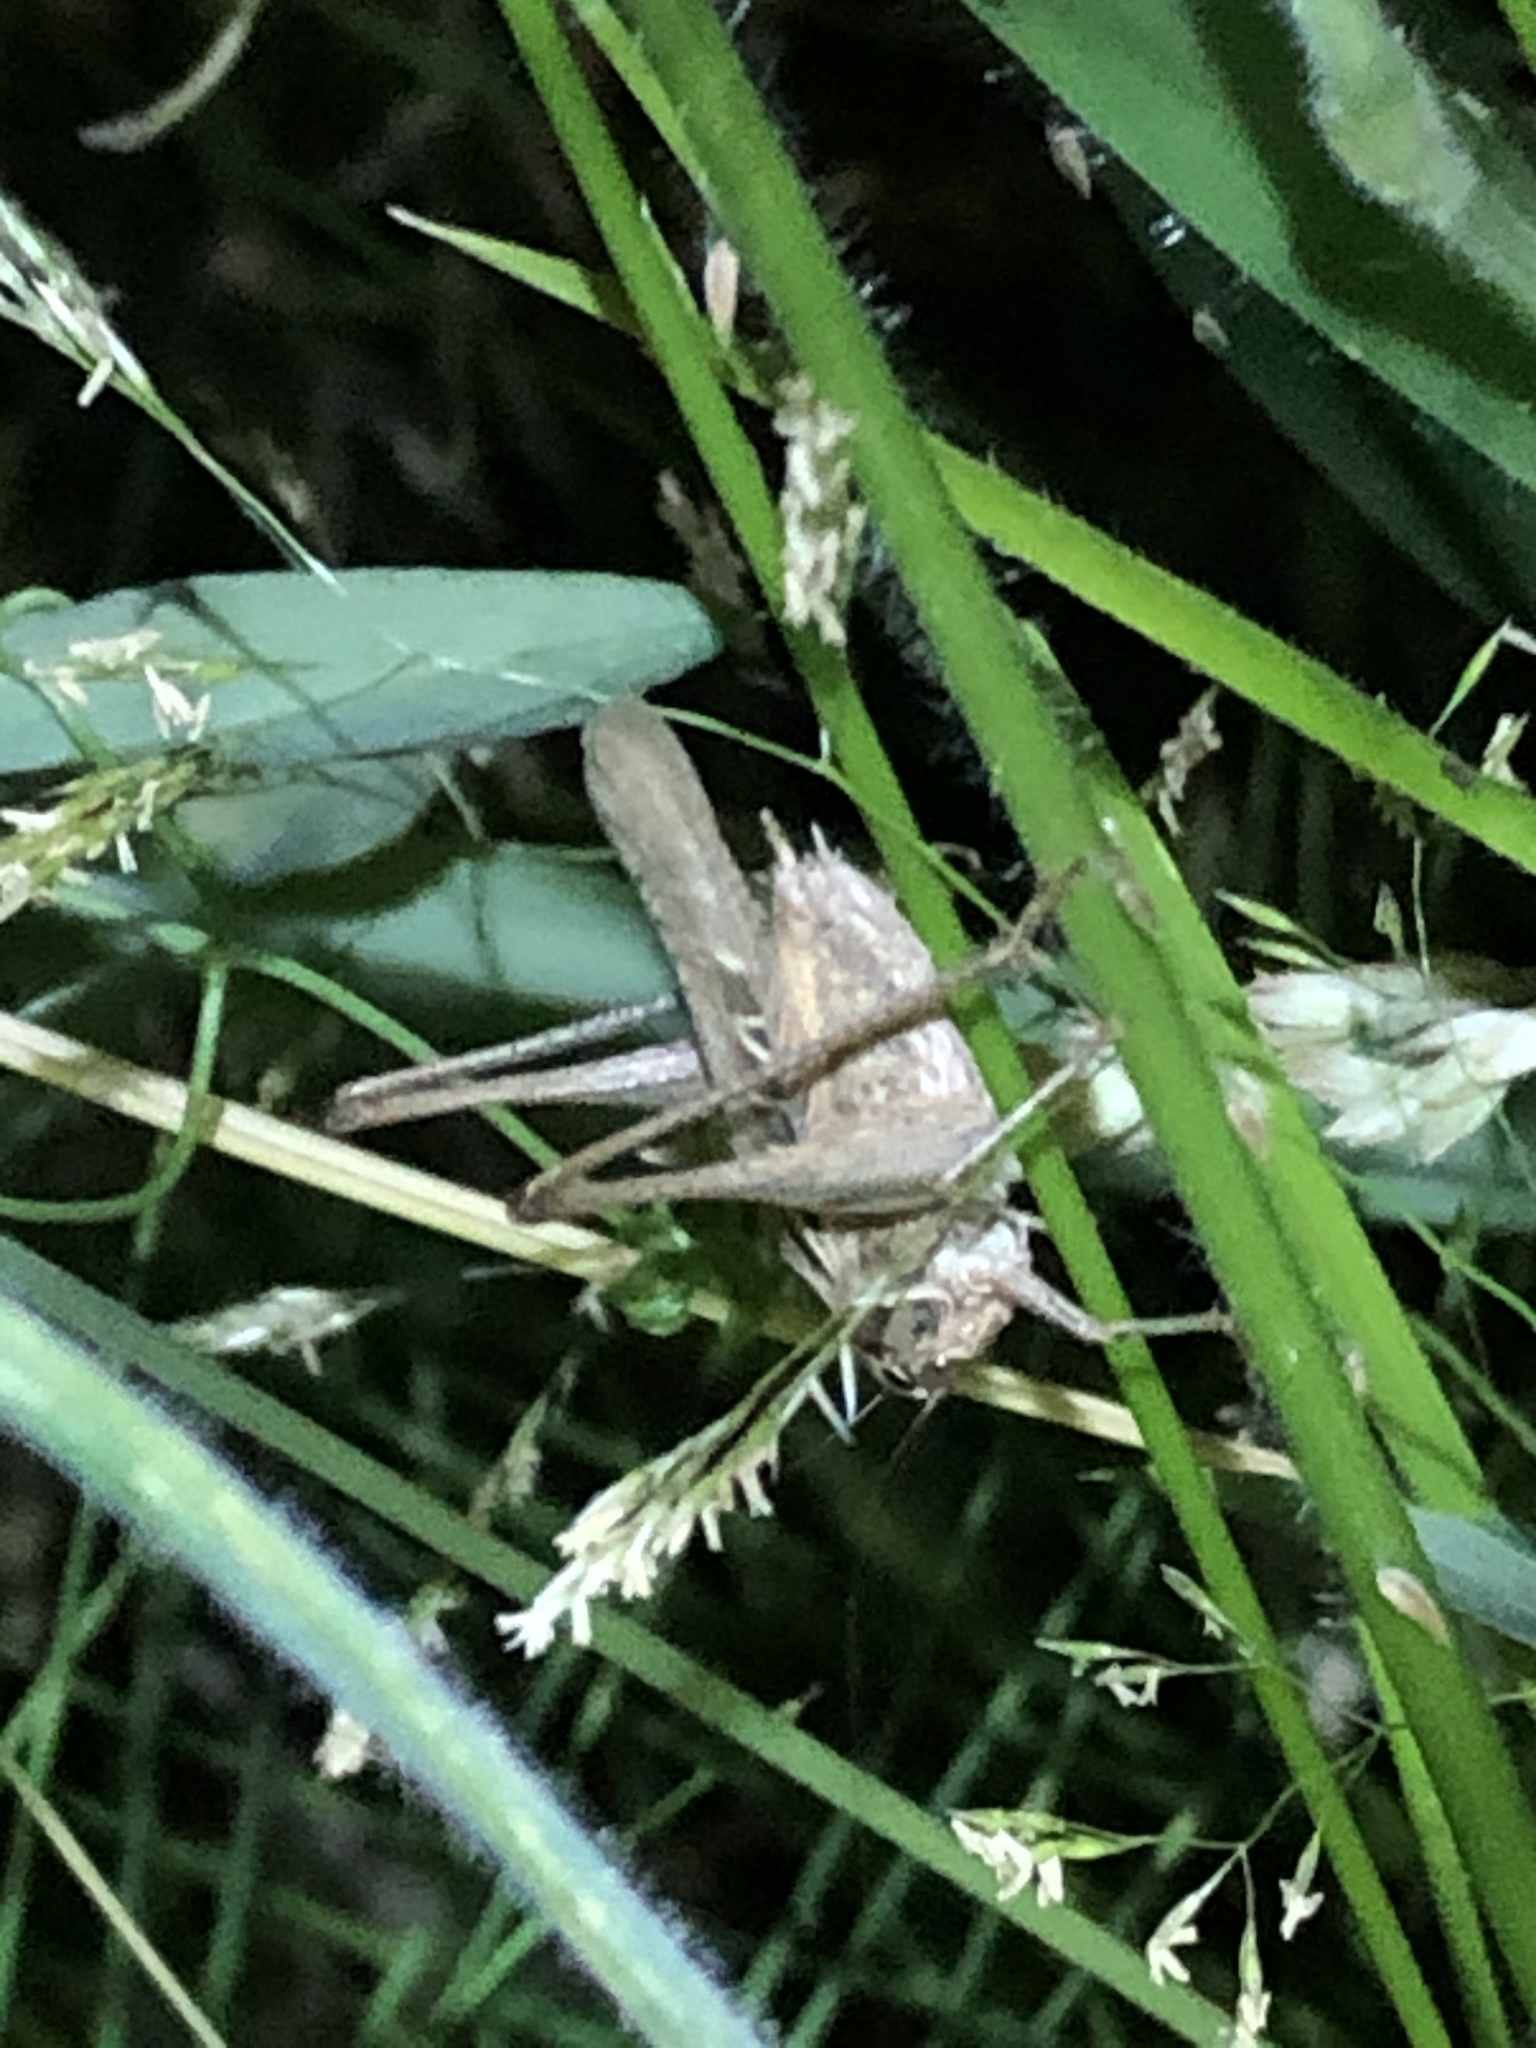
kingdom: Animalia
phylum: Arthropoda
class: Insecta
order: Orthoptera
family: Tettigoniidae
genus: Tessellana
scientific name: Tessellana tessellata
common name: Grasshopper
